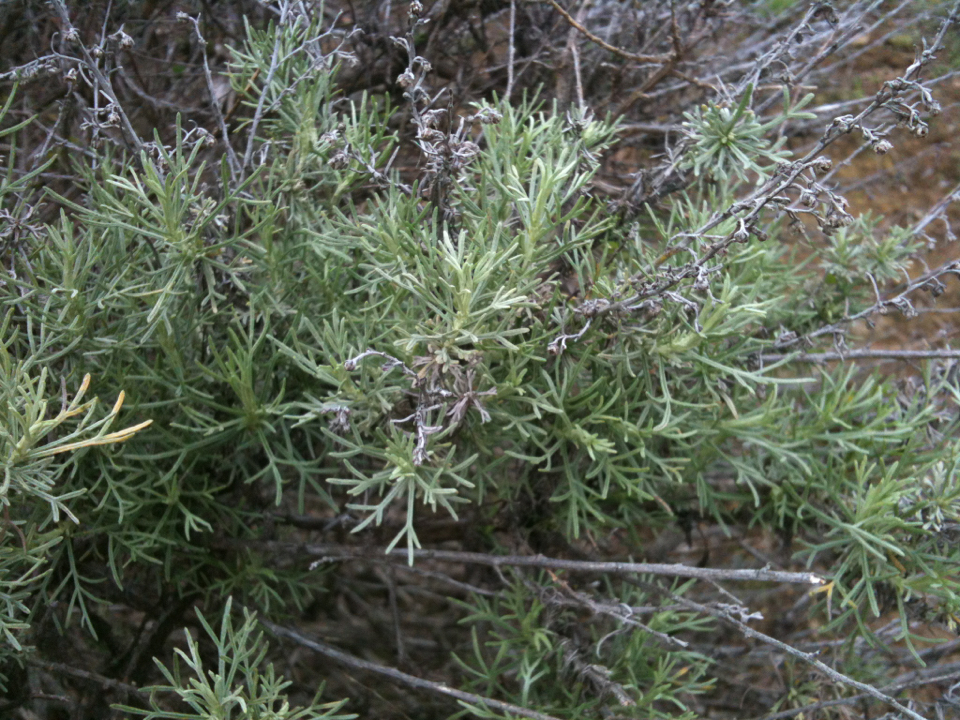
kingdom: Plantae
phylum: Tracheophyta
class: Magnoliopsida
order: Asterales
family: Asteraceae
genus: Artemisia
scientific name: Artemisia californica
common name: California sagebrush
